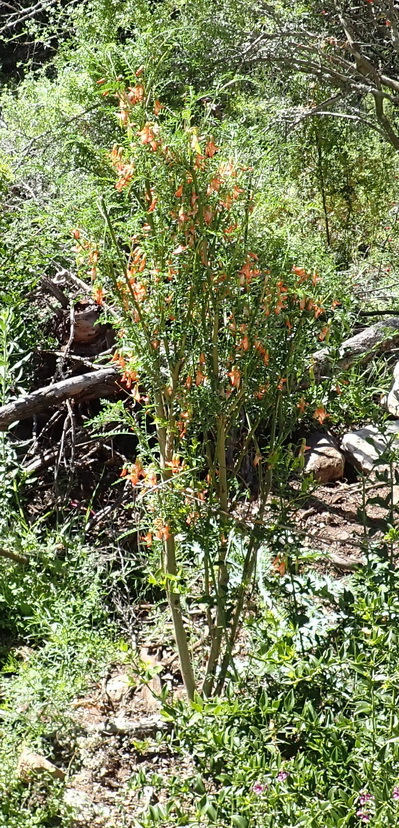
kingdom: Plantae
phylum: Tracheophyta
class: Magnoliopsida
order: Fabales
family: Fabaceae
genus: Lessertia
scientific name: Lessertia frutescens
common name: Balloon-pea
